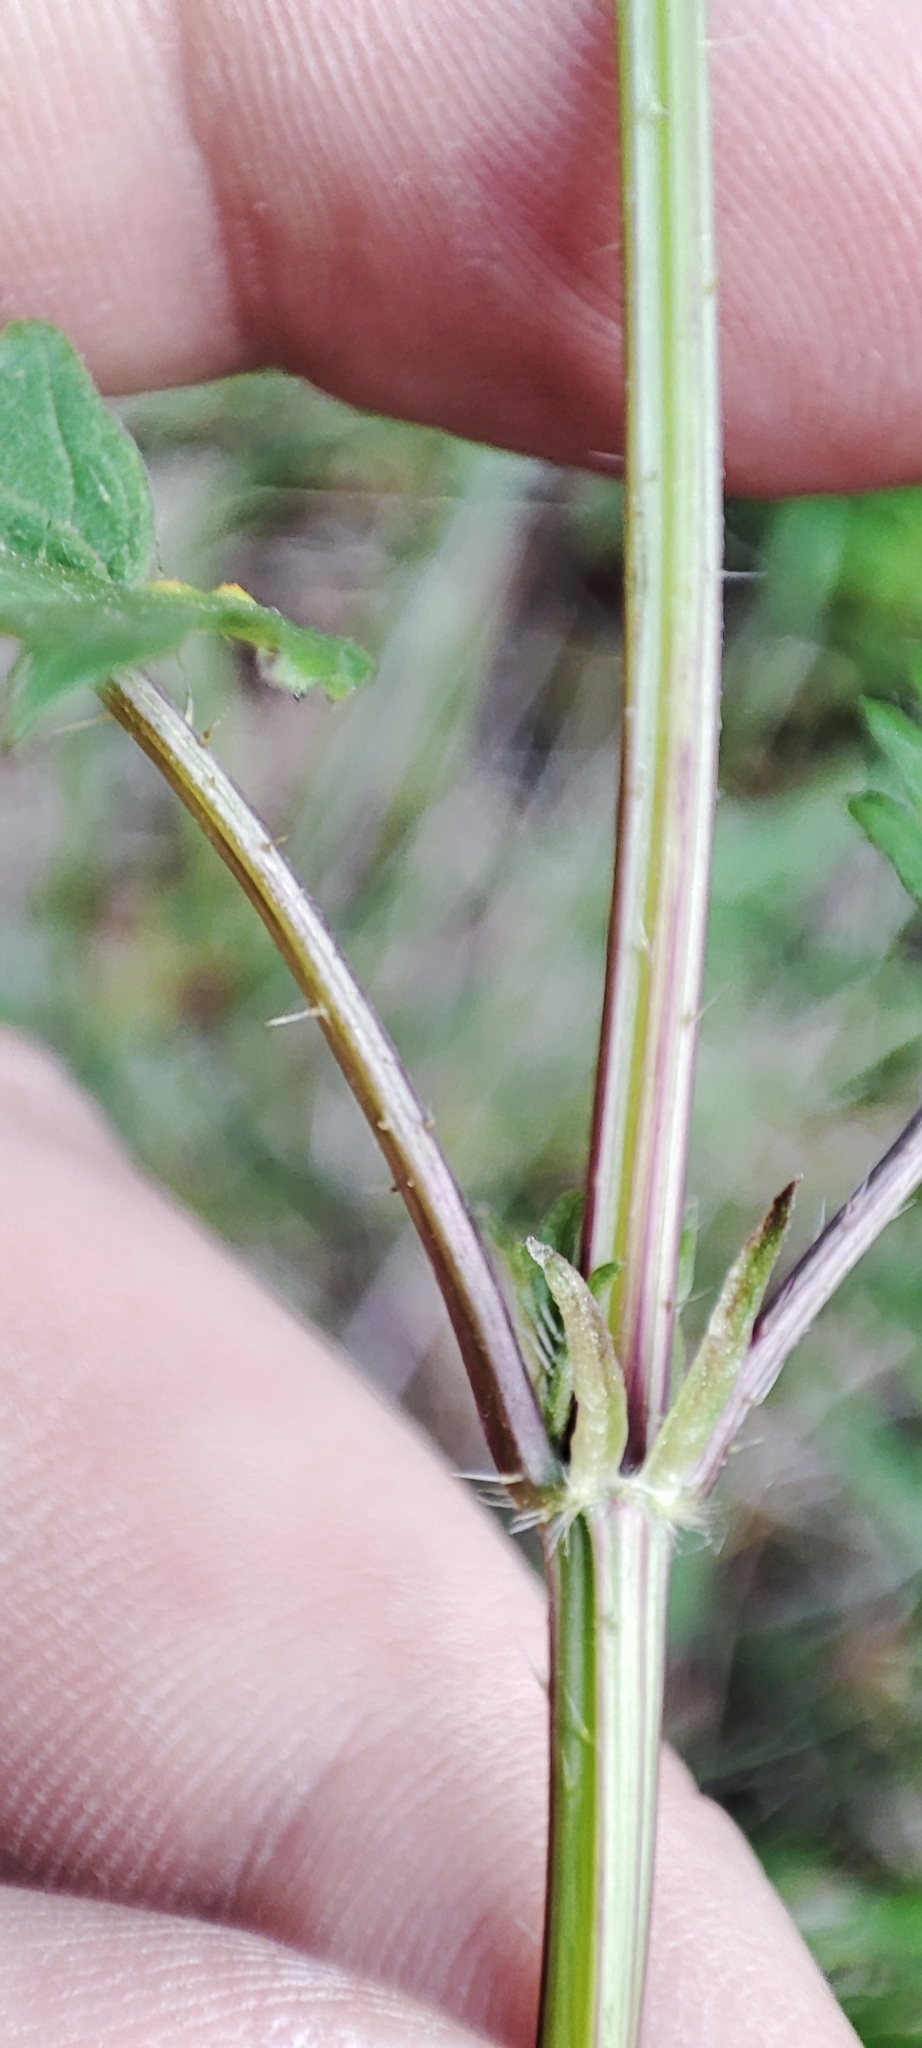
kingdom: Plantae
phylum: Tracheophyta
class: Magnoliopsida
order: Rosales
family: Urticaceae
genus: Urtica
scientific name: Urtica dioica
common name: Common nettle
